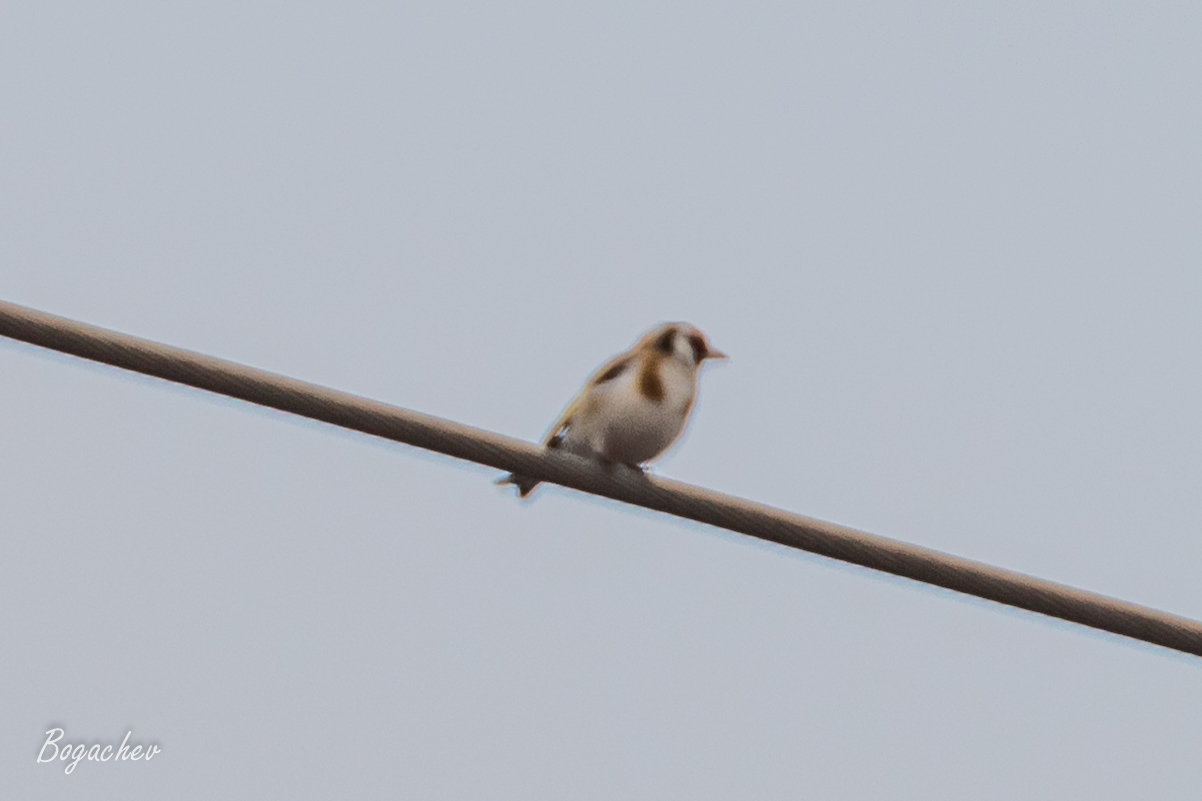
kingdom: Animalia
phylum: Chordata
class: Aves
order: Passeriformes
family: Fringillidae
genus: Carduelis
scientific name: Carduelis carduelis
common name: European goldfinch
